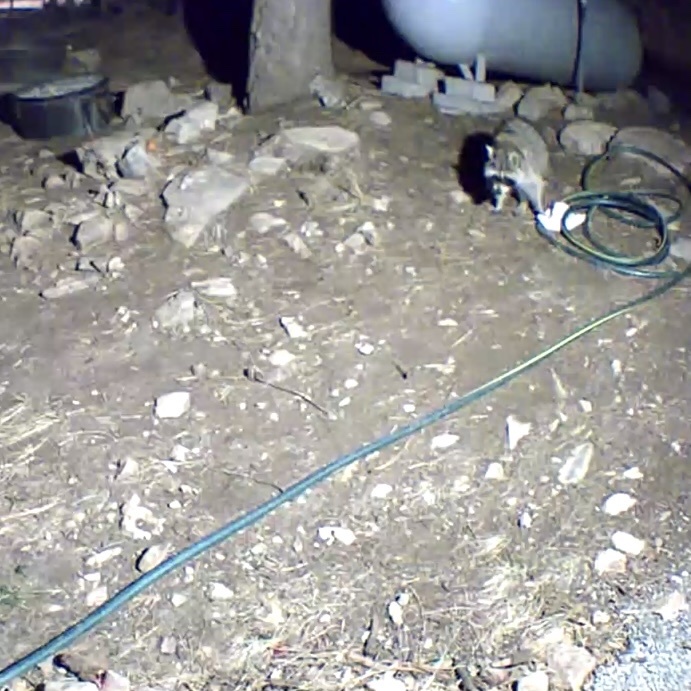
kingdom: Animalia
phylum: Chordata
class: Mammalia
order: Carnivora
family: Procyonidae
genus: Procyon
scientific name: Procyon lotor
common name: Raccoon
